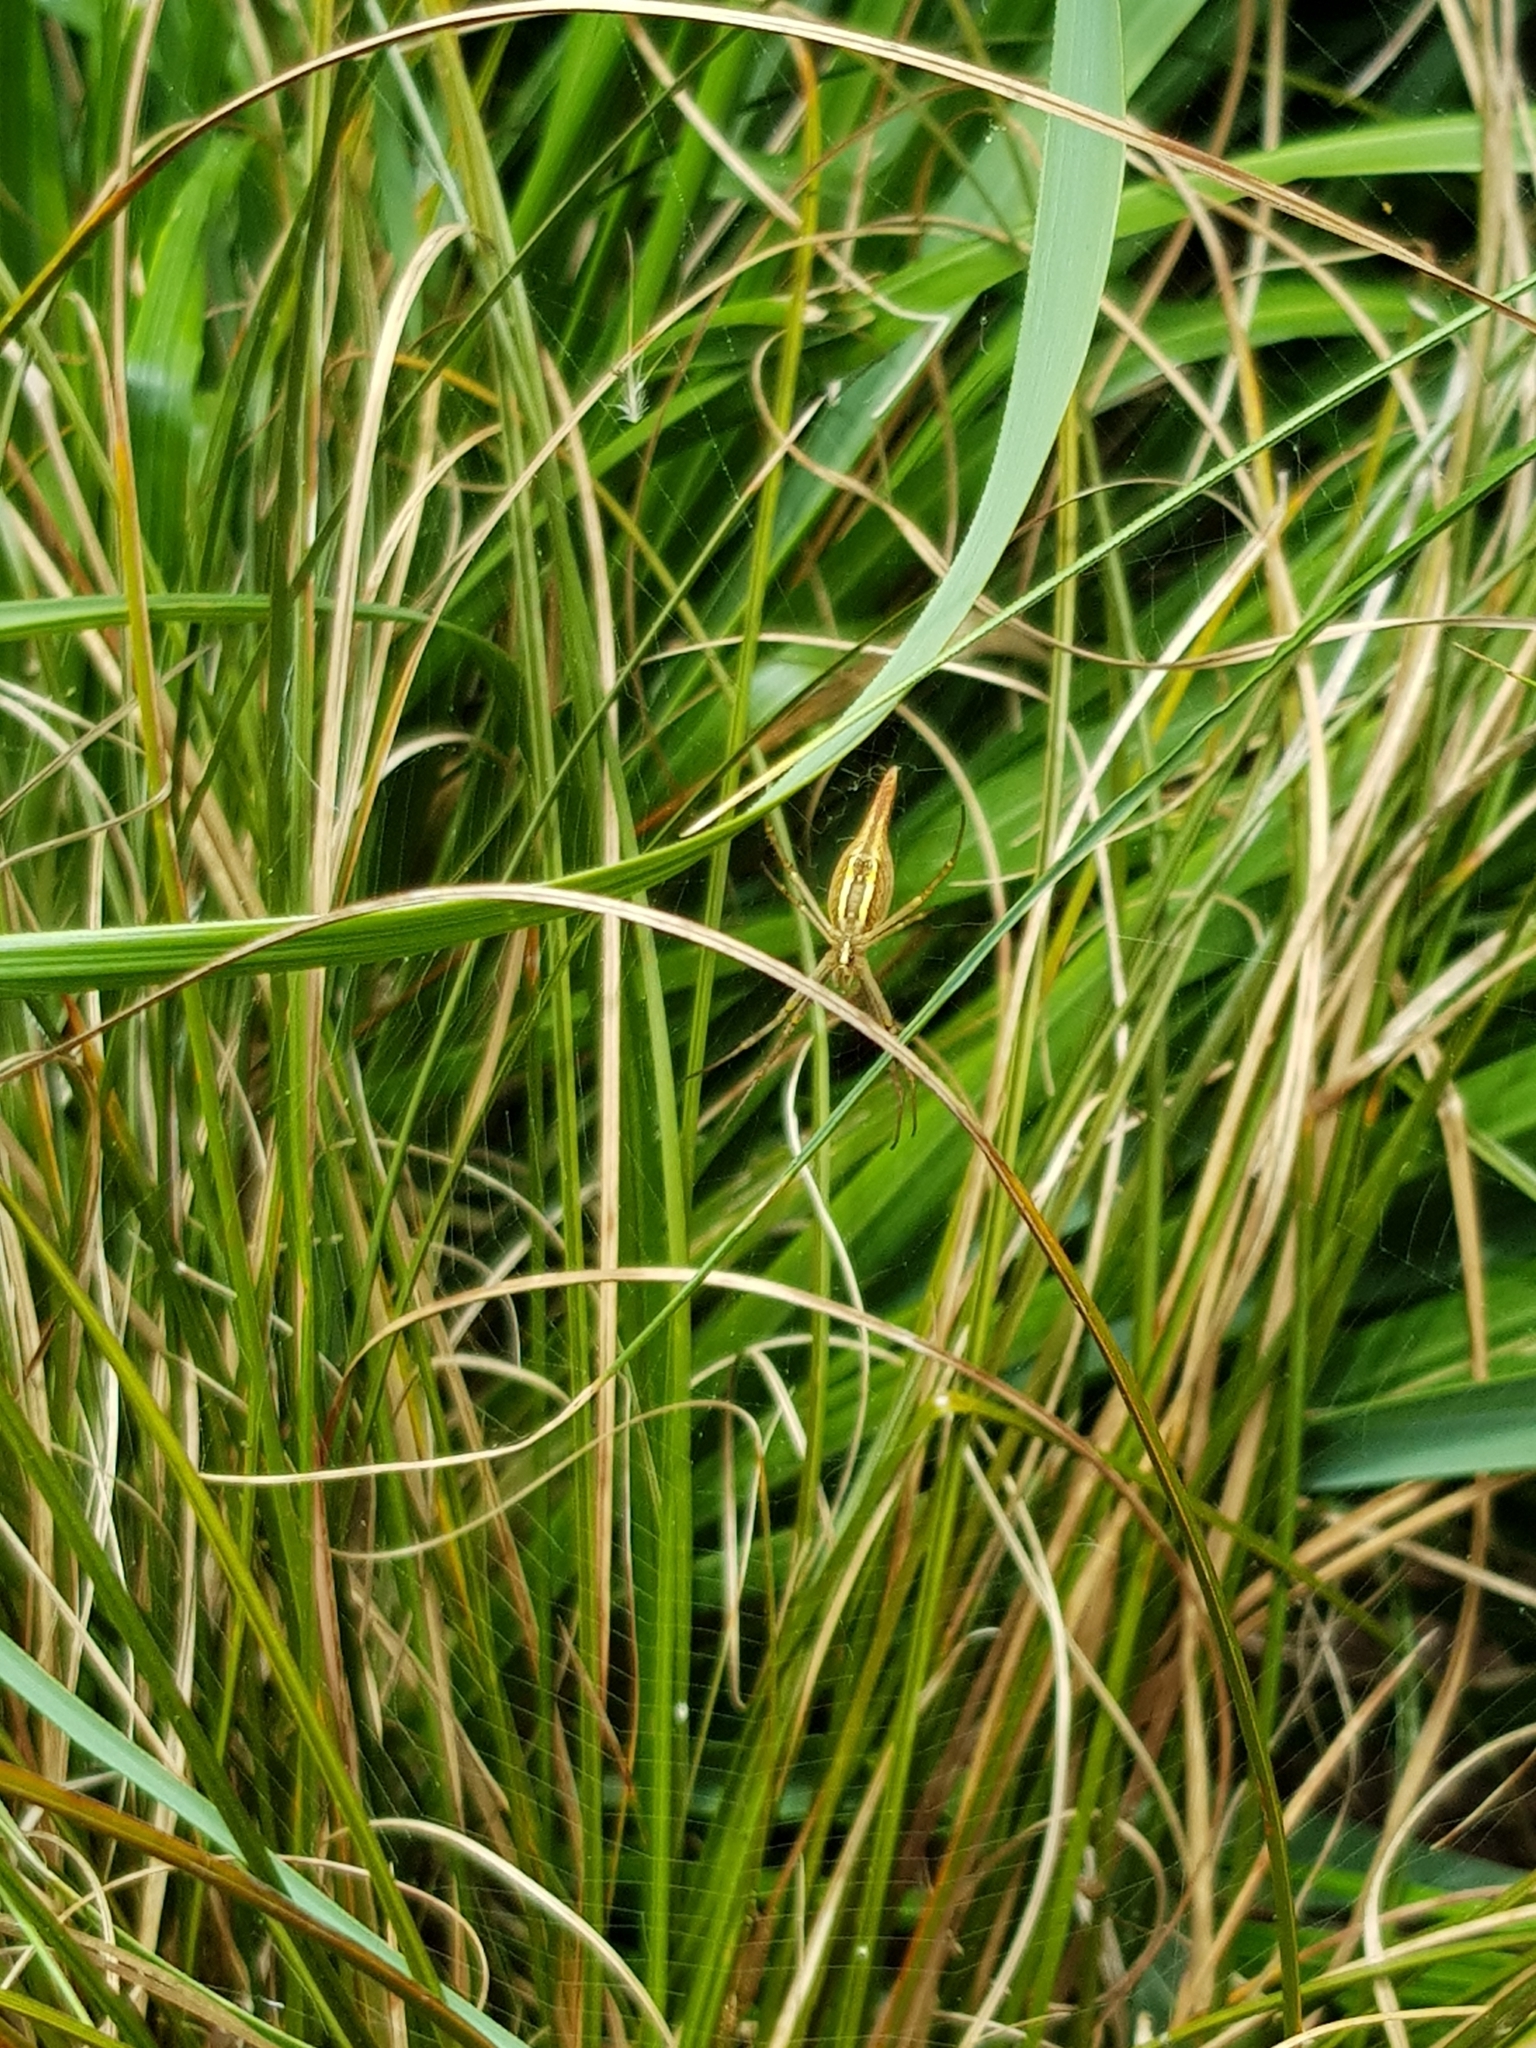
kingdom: Animalia
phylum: Arthropoda
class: Arachnida
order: Araneae
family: Araneidae
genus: Argiope
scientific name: Argiope protensa
